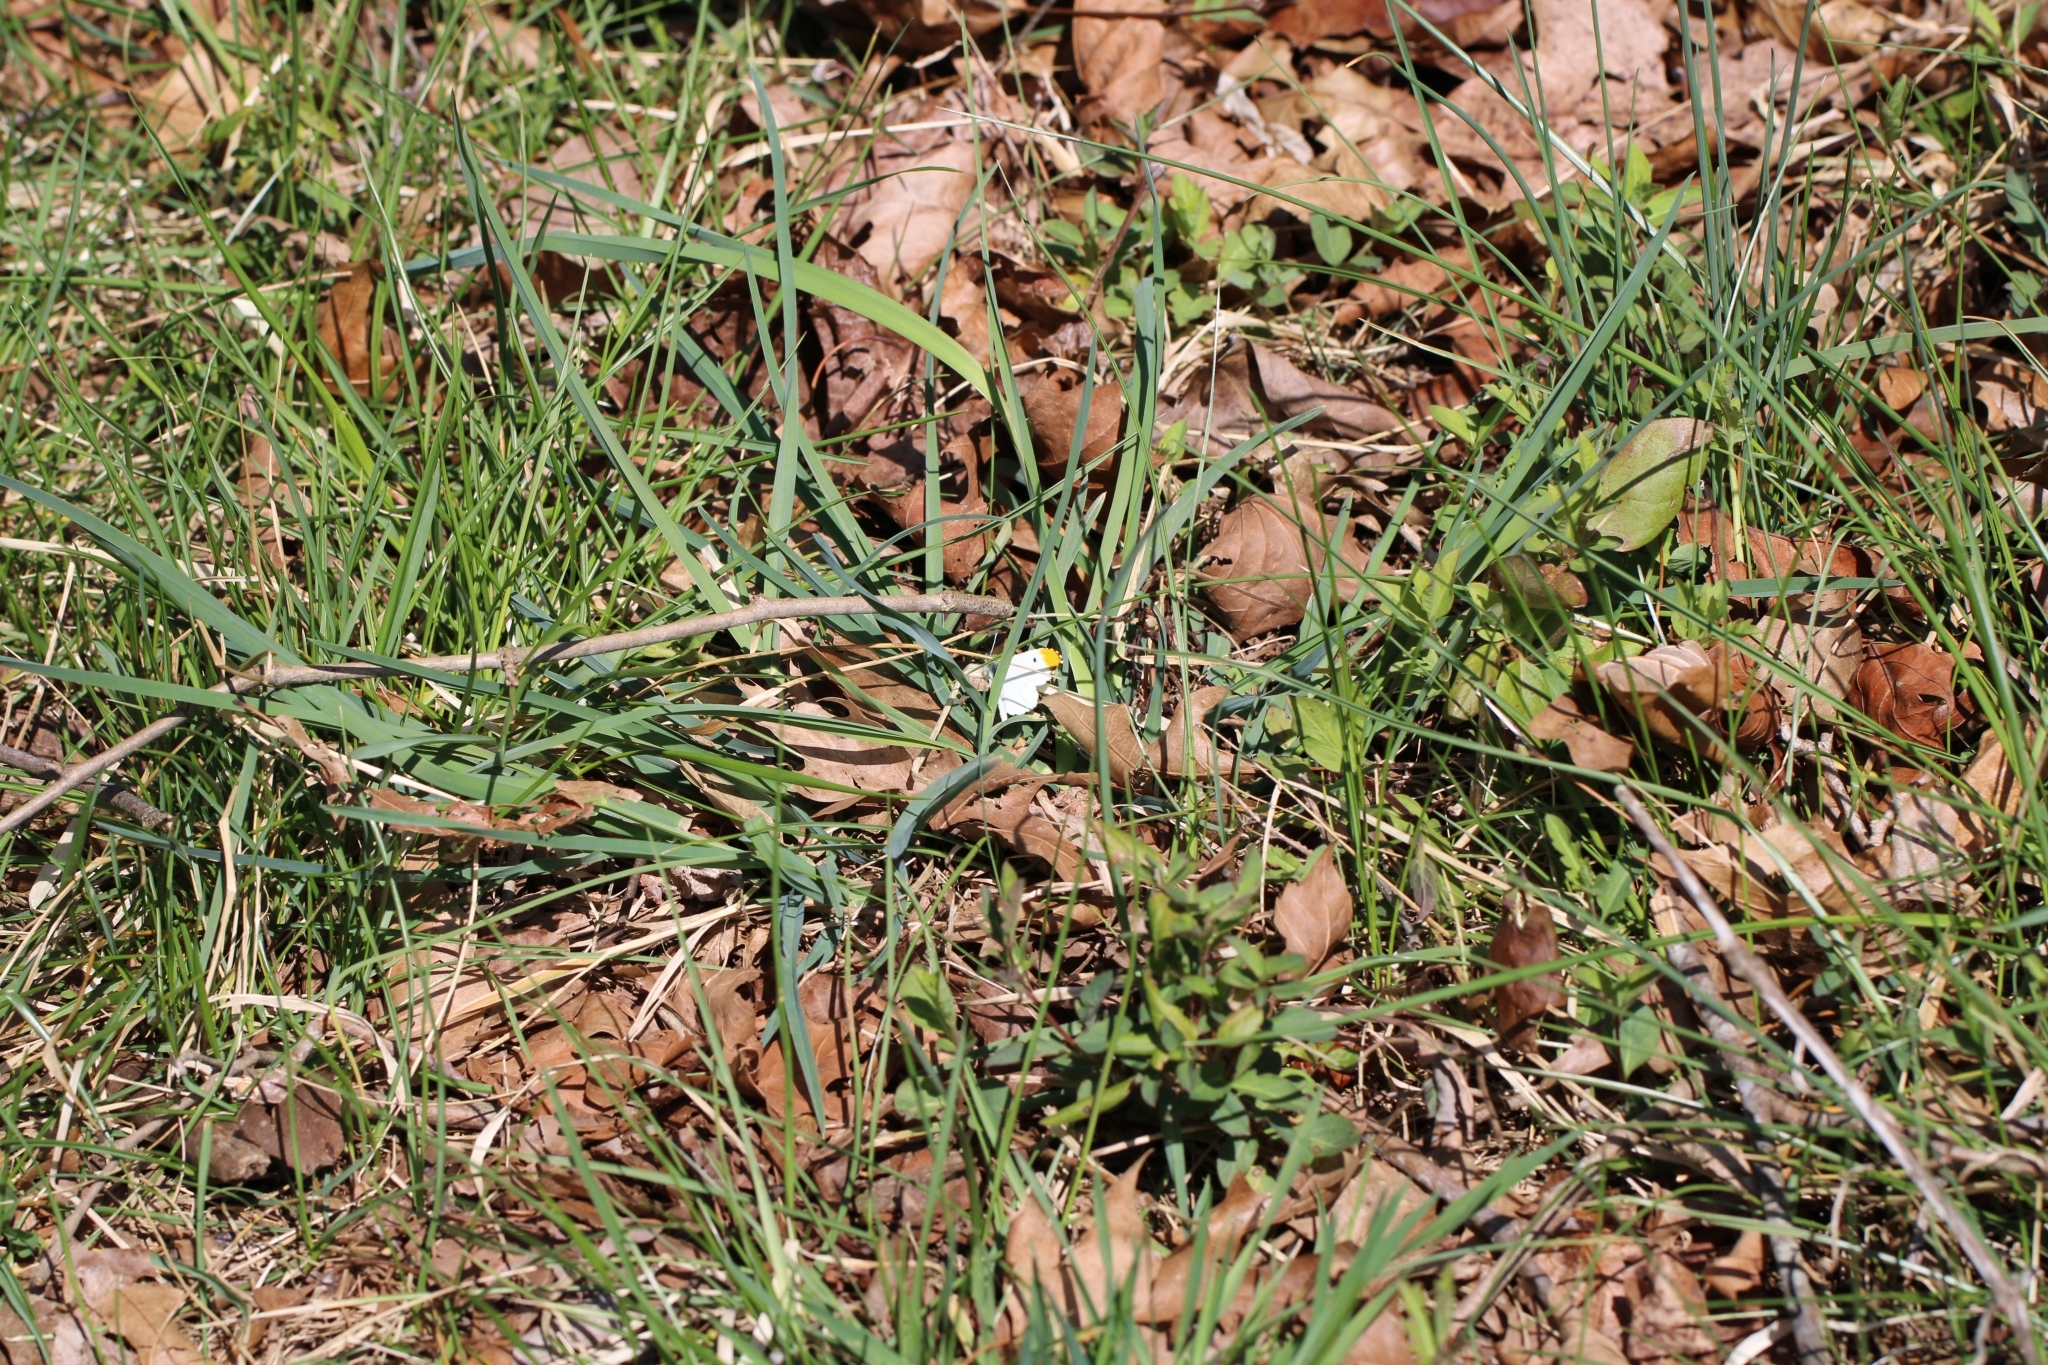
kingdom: Animalia
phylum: Arthropoda
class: Insecta
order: Lepidoptera
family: Pieridae
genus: Anthocharis
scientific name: Anthocharis midea
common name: Falcate orangetip
